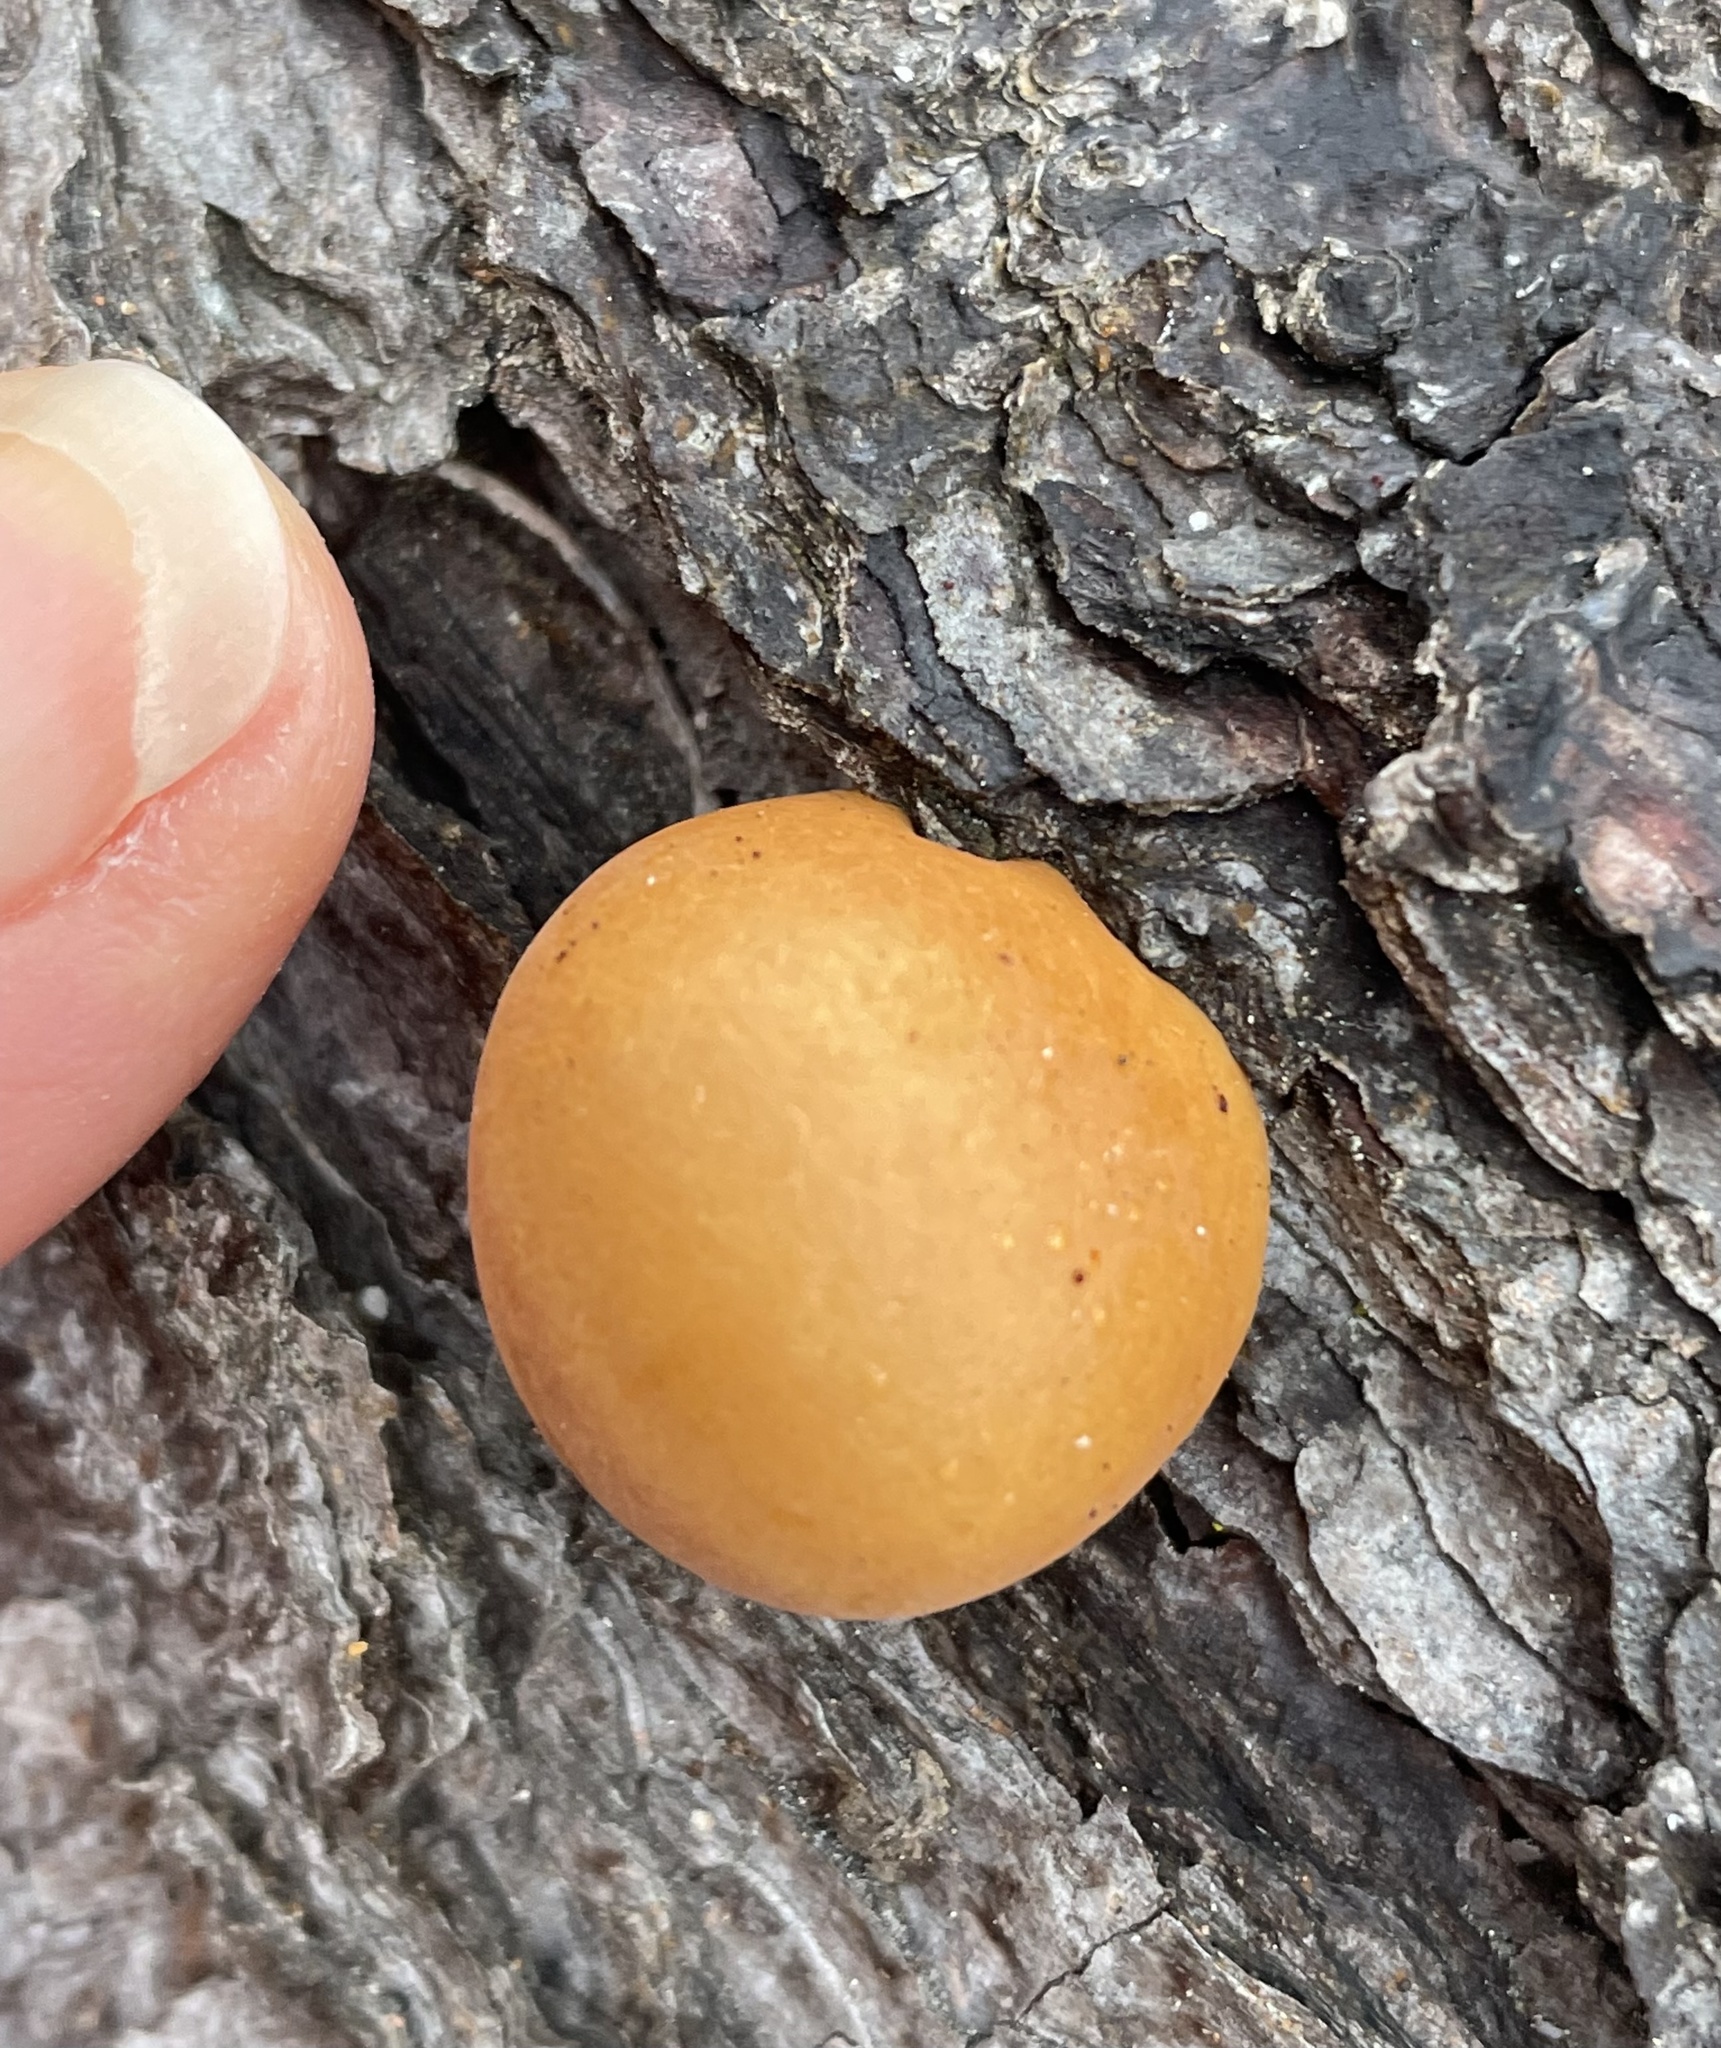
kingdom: Fungi
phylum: Basidiomycota
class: Agaricomycetes
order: Polyporales
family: Polyporaceae
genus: Cryptoporus
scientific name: Cryptoporus volvatus
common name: Veiled polypore
